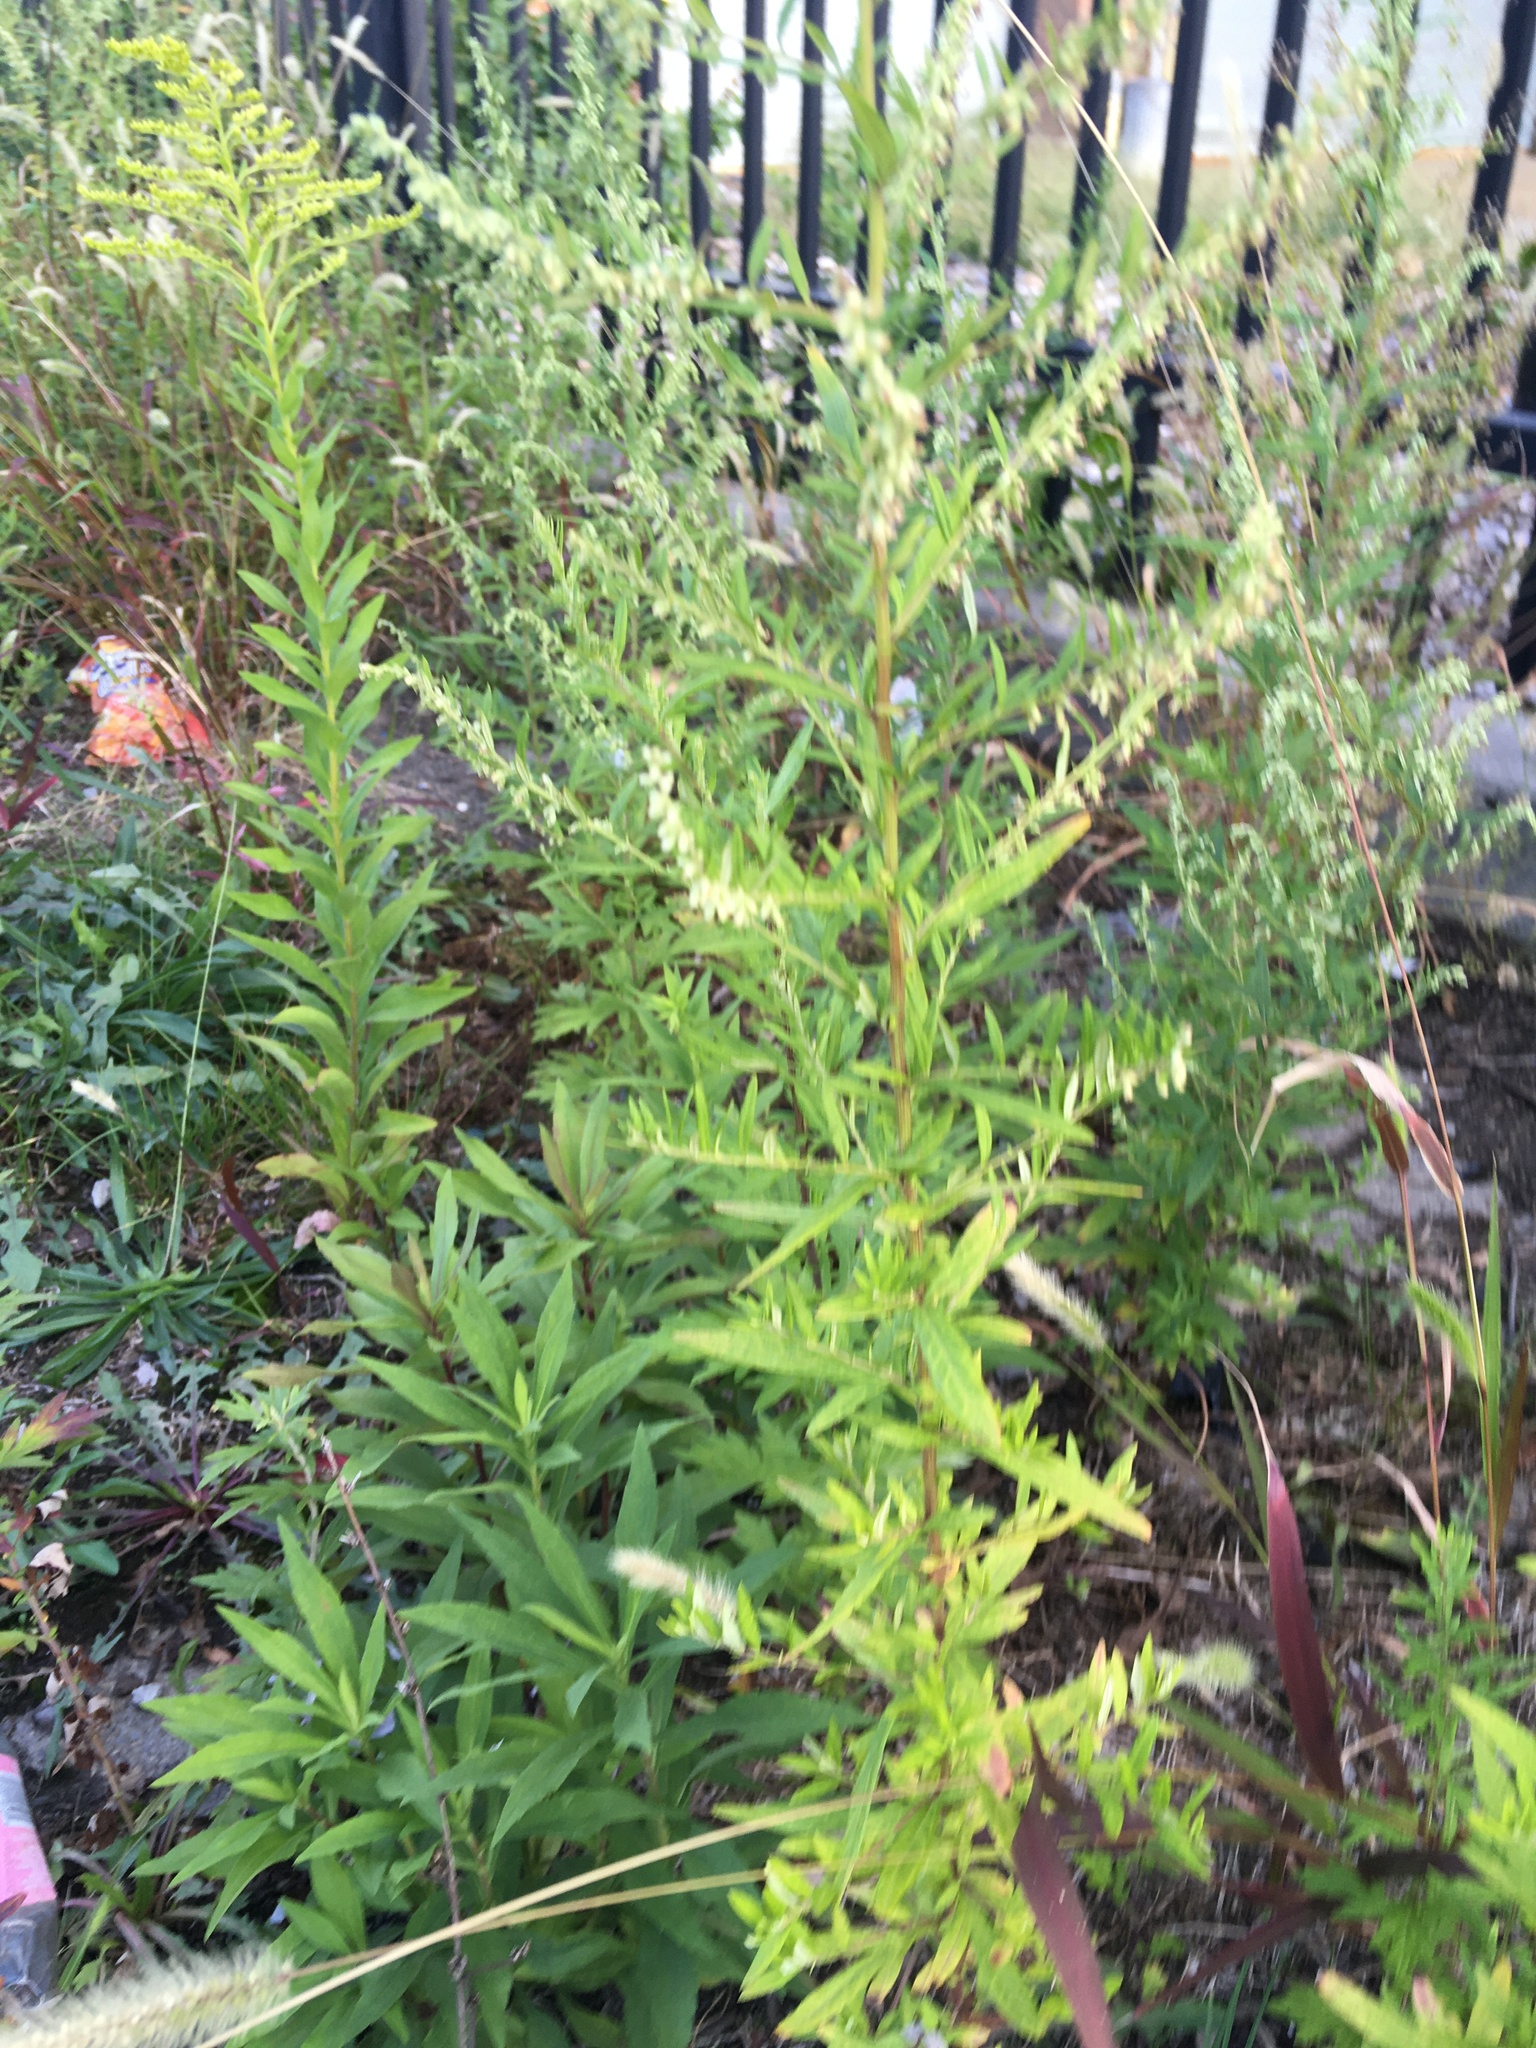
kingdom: Plantae
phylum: Tracheophyta
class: Magnoliopsida
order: Asterales
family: Asteraceae
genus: Artemisia
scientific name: Artemisia vulgaris
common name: Mugwort
